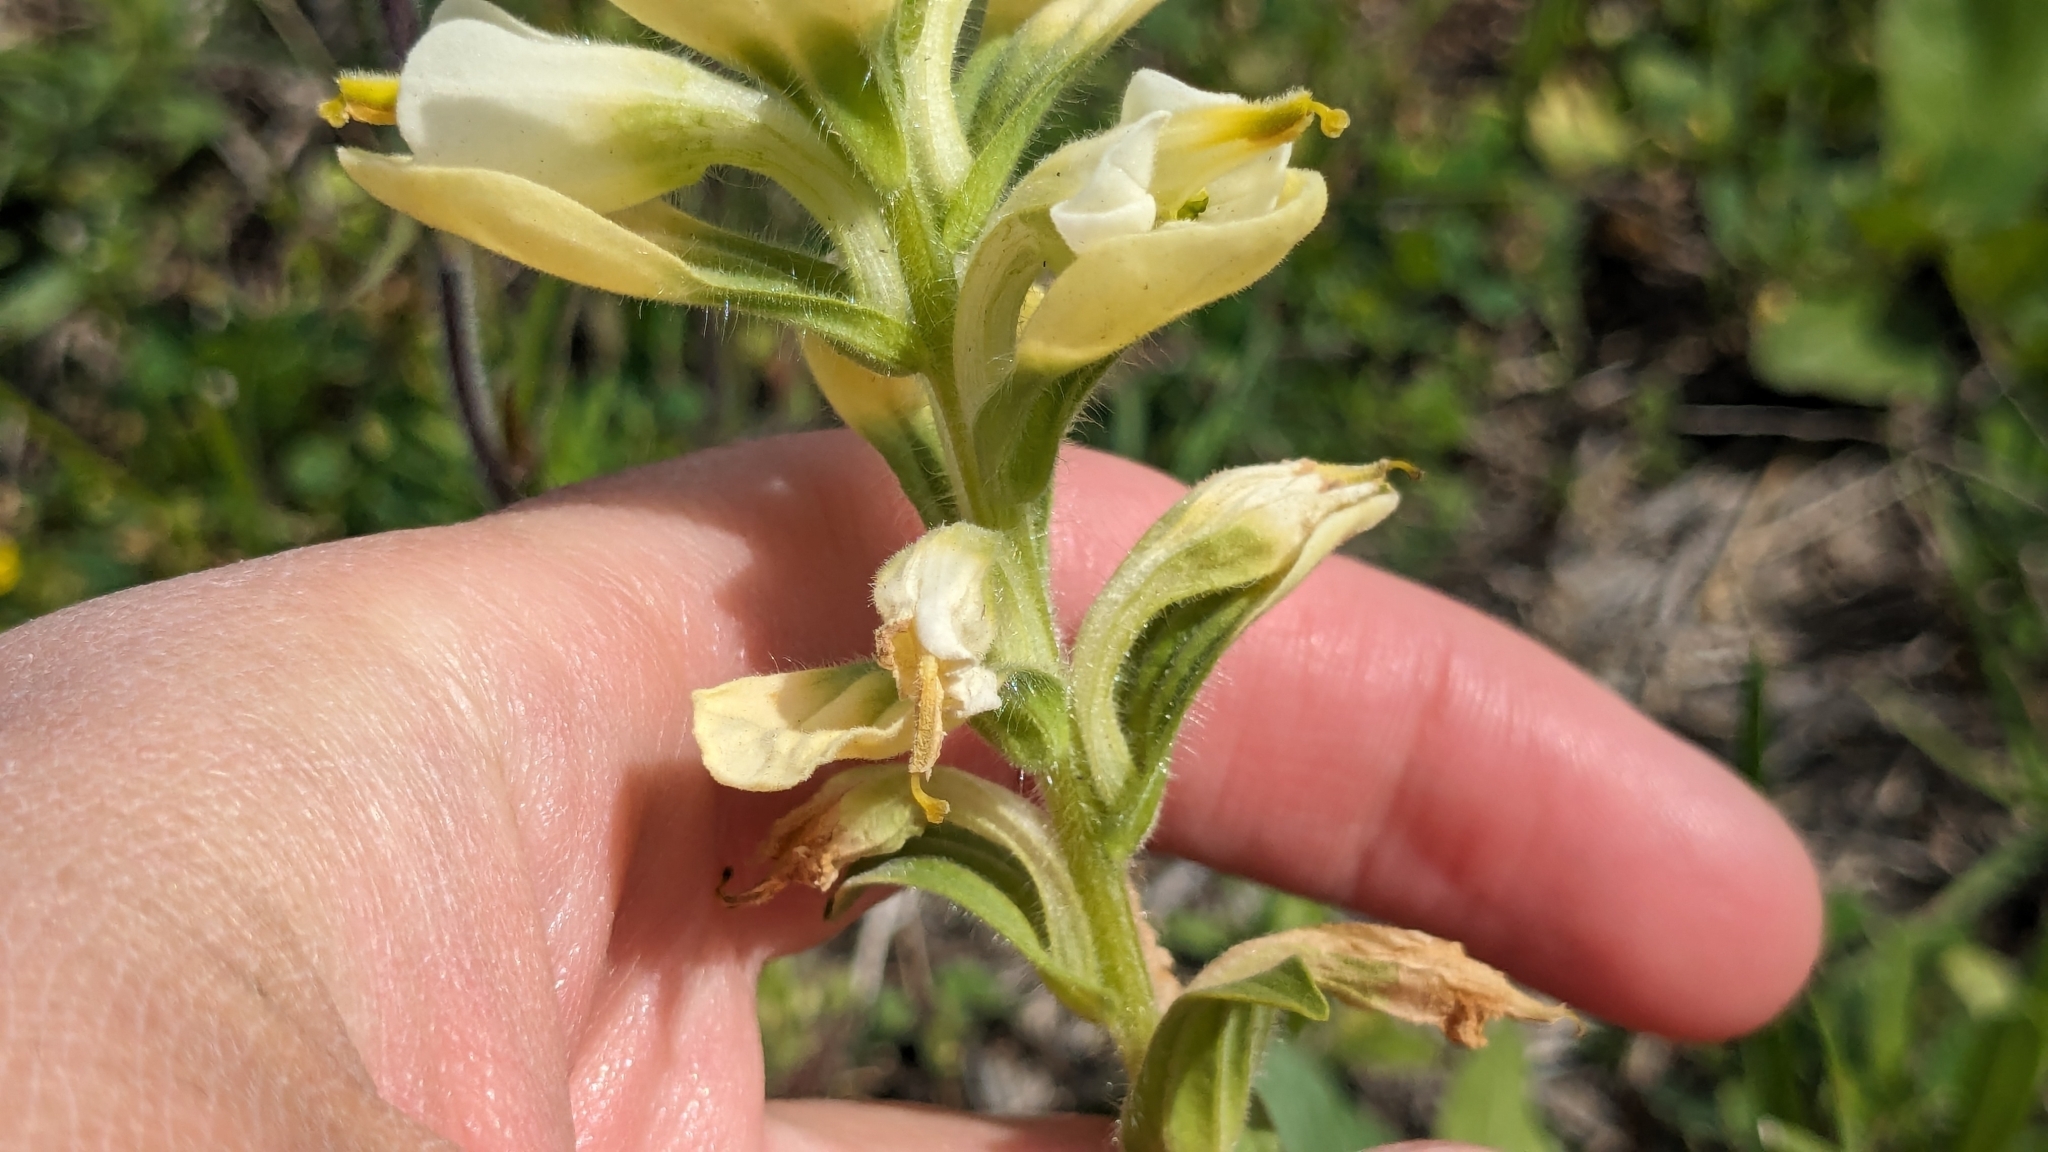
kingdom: Plantae
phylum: Tracheophyta
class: Magnoliopsida
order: Lamiales
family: Orobanchaceae
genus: Castilleja
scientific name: Castilleja indivisa
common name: Texas paintbrush
